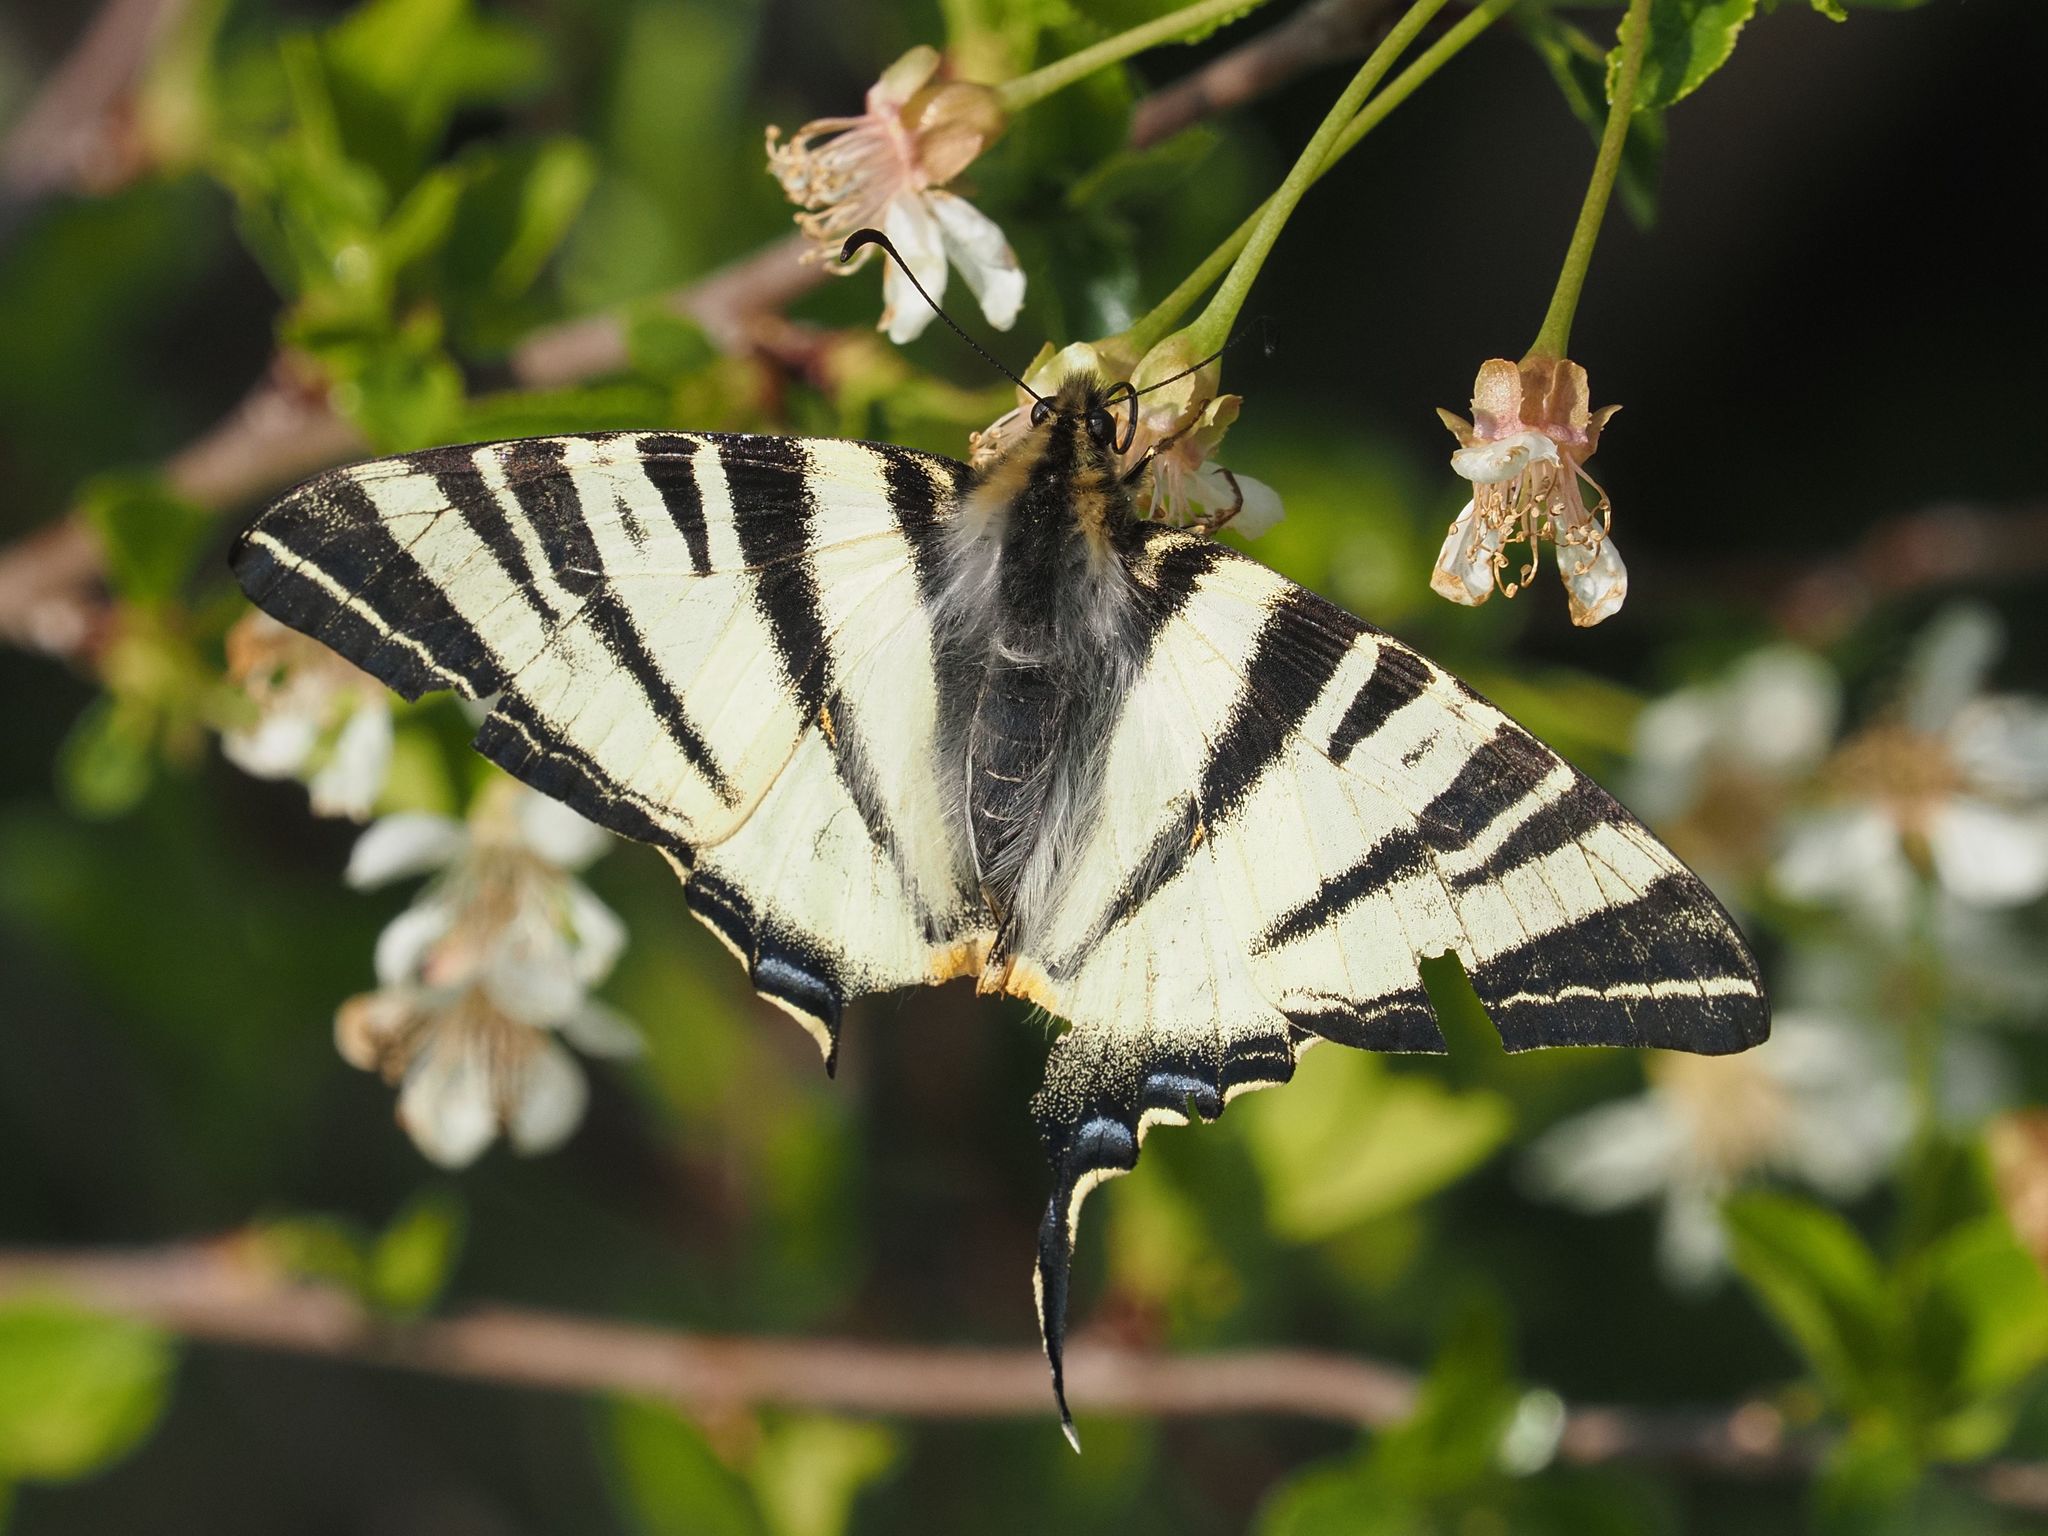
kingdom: Animalia
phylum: Arthropoda
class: Insecta
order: Lepidoptera
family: Papilionidae
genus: Iphiclides
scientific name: Iphiclides podalirius
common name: Scarce swallowtail
